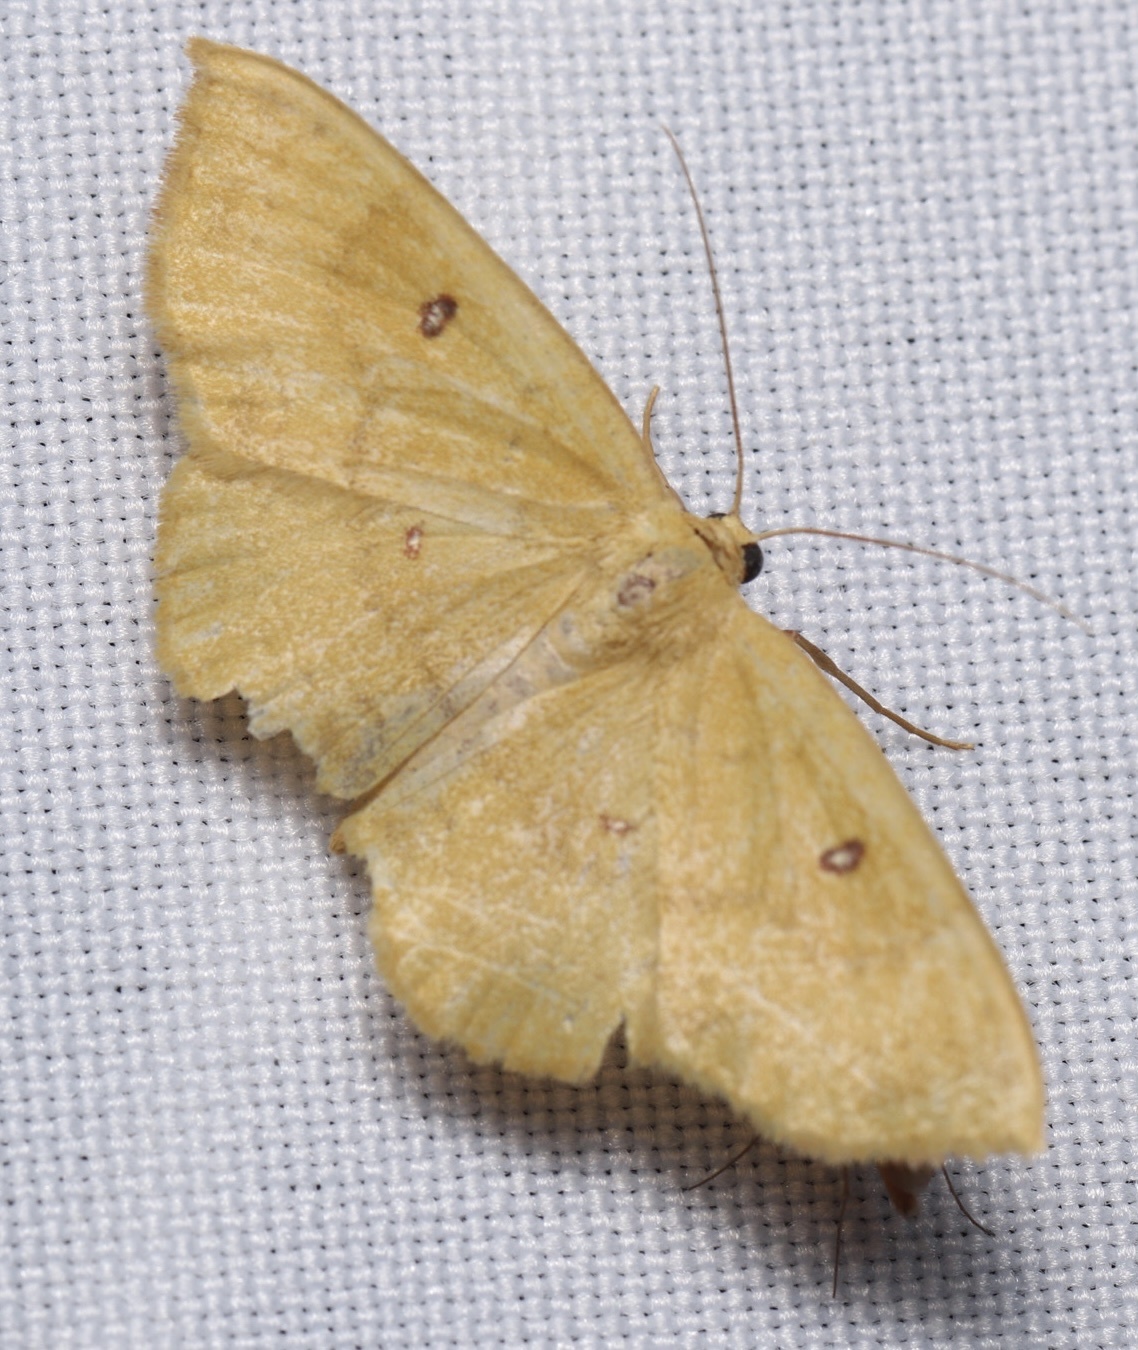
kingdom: Animalia
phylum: Arthropoda
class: Insecta
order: Lepidoptera
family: Geometridae
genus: Semaeopus
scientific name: Semaeopus ella
